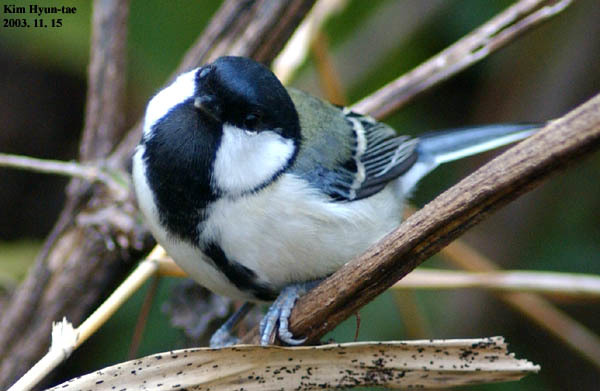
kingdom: Animalia
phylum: Chordata
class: Aves
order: Passeriformes
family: Paridae
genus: Parus
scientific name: Parus minor
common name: Japanese tit
